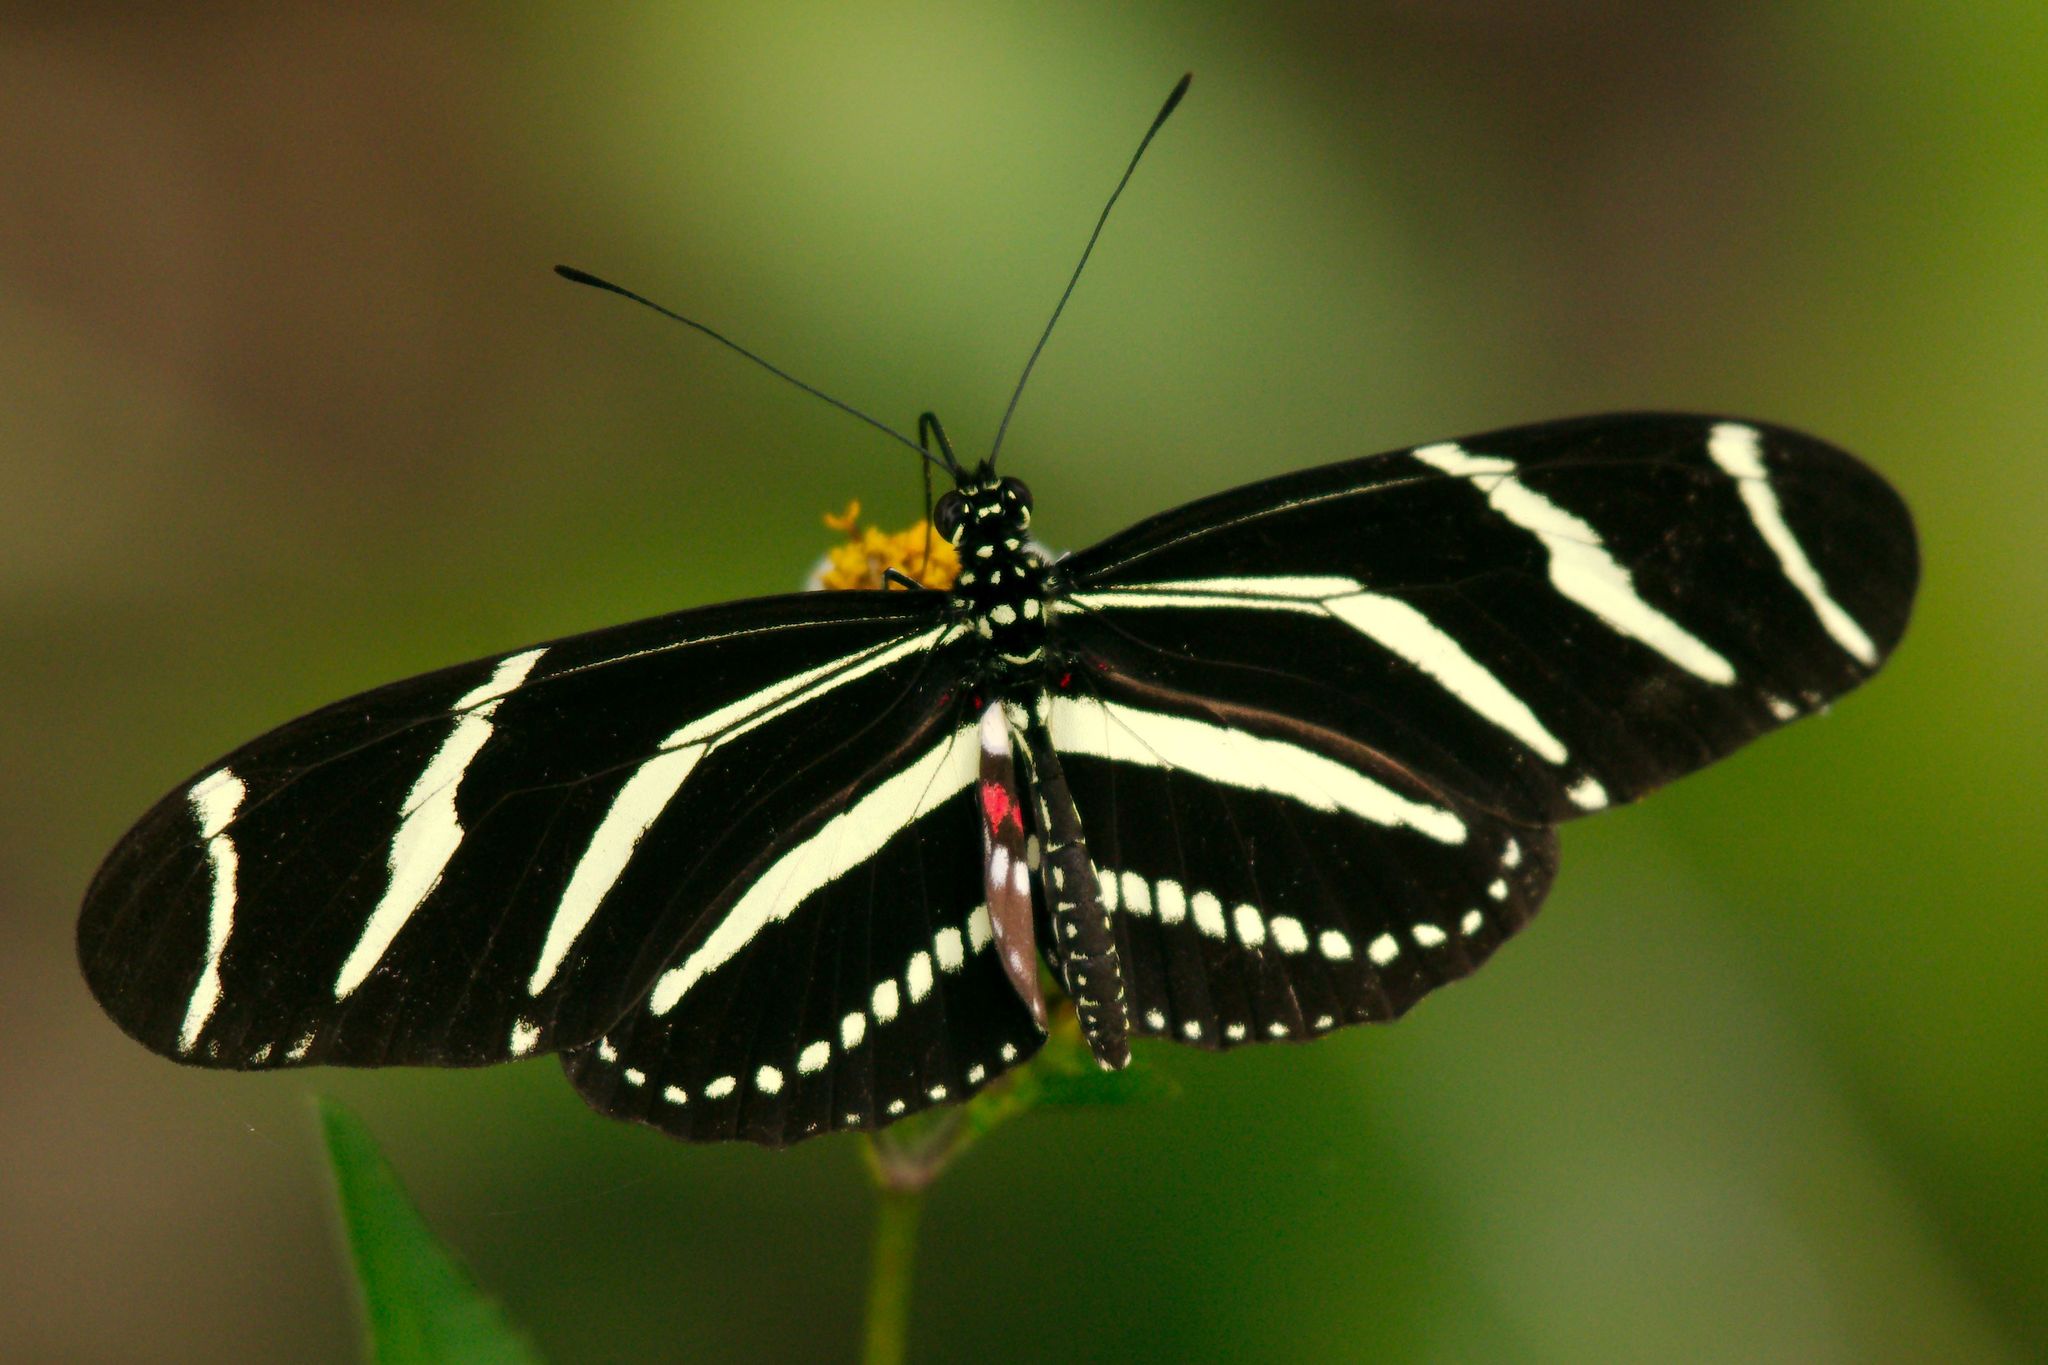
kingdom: Animalia
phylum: Arthropoda
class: Insecta
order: Lepidoptera
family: Nymphalidae
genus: Heliconius
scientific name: Heliconius charithonia
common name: Zebra long wing
